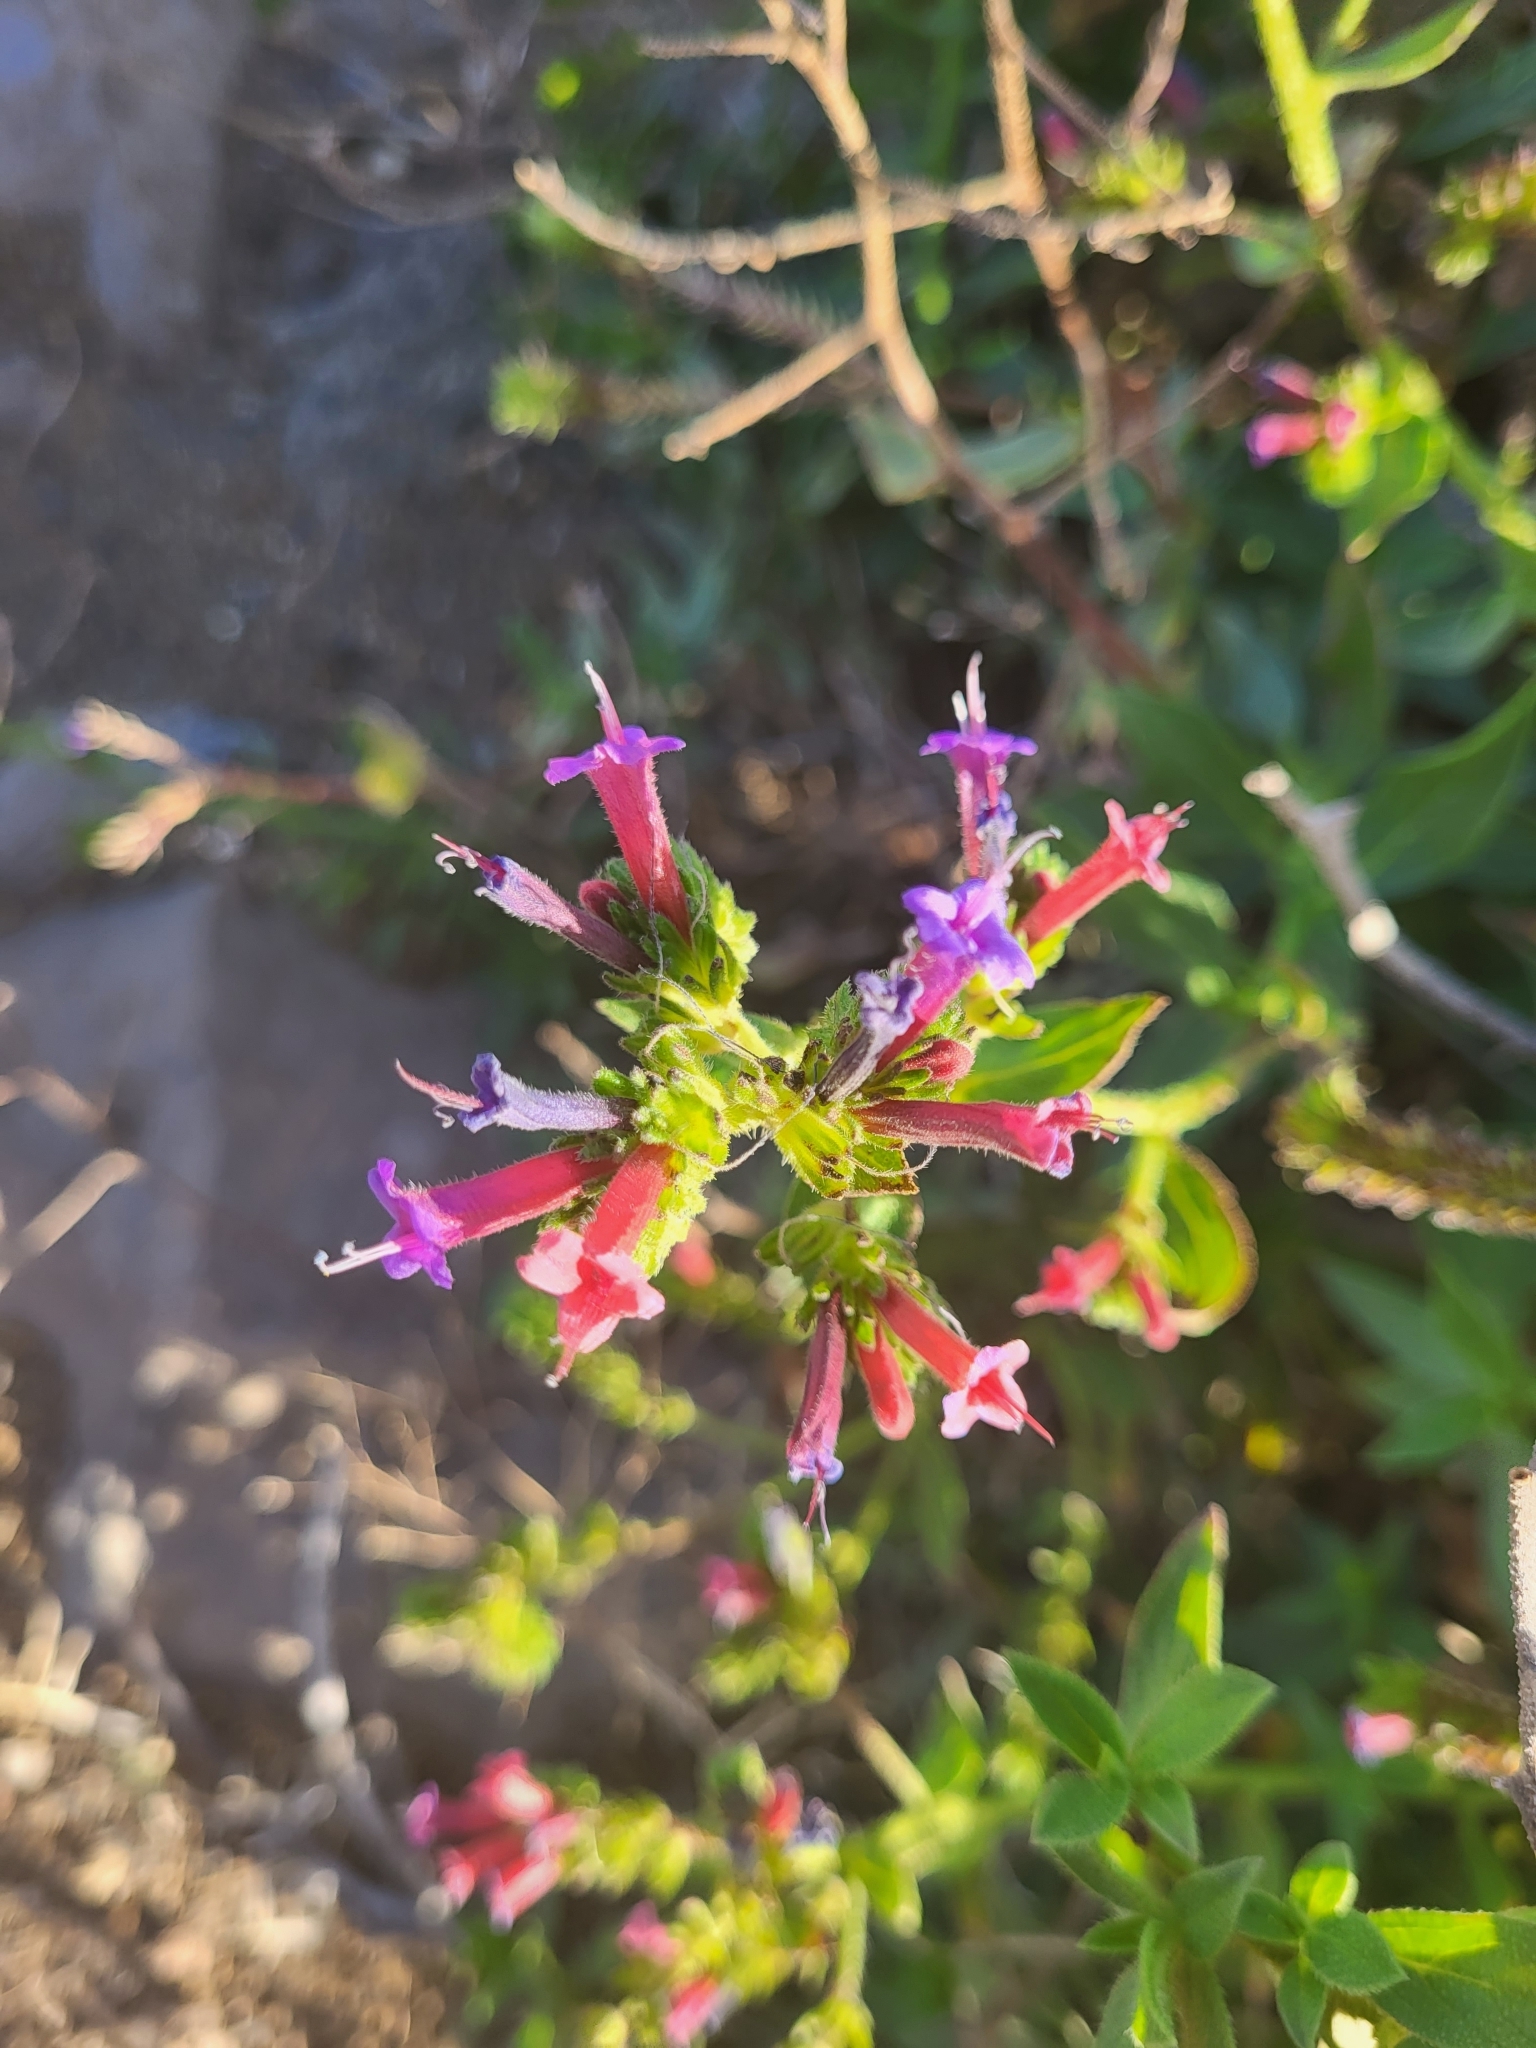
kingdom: Plantae
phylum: Tracheophyta
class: Magnoliopsida
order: Boraginales
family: Boraginaceae
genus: Echium
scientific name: Echium stenosiphon
